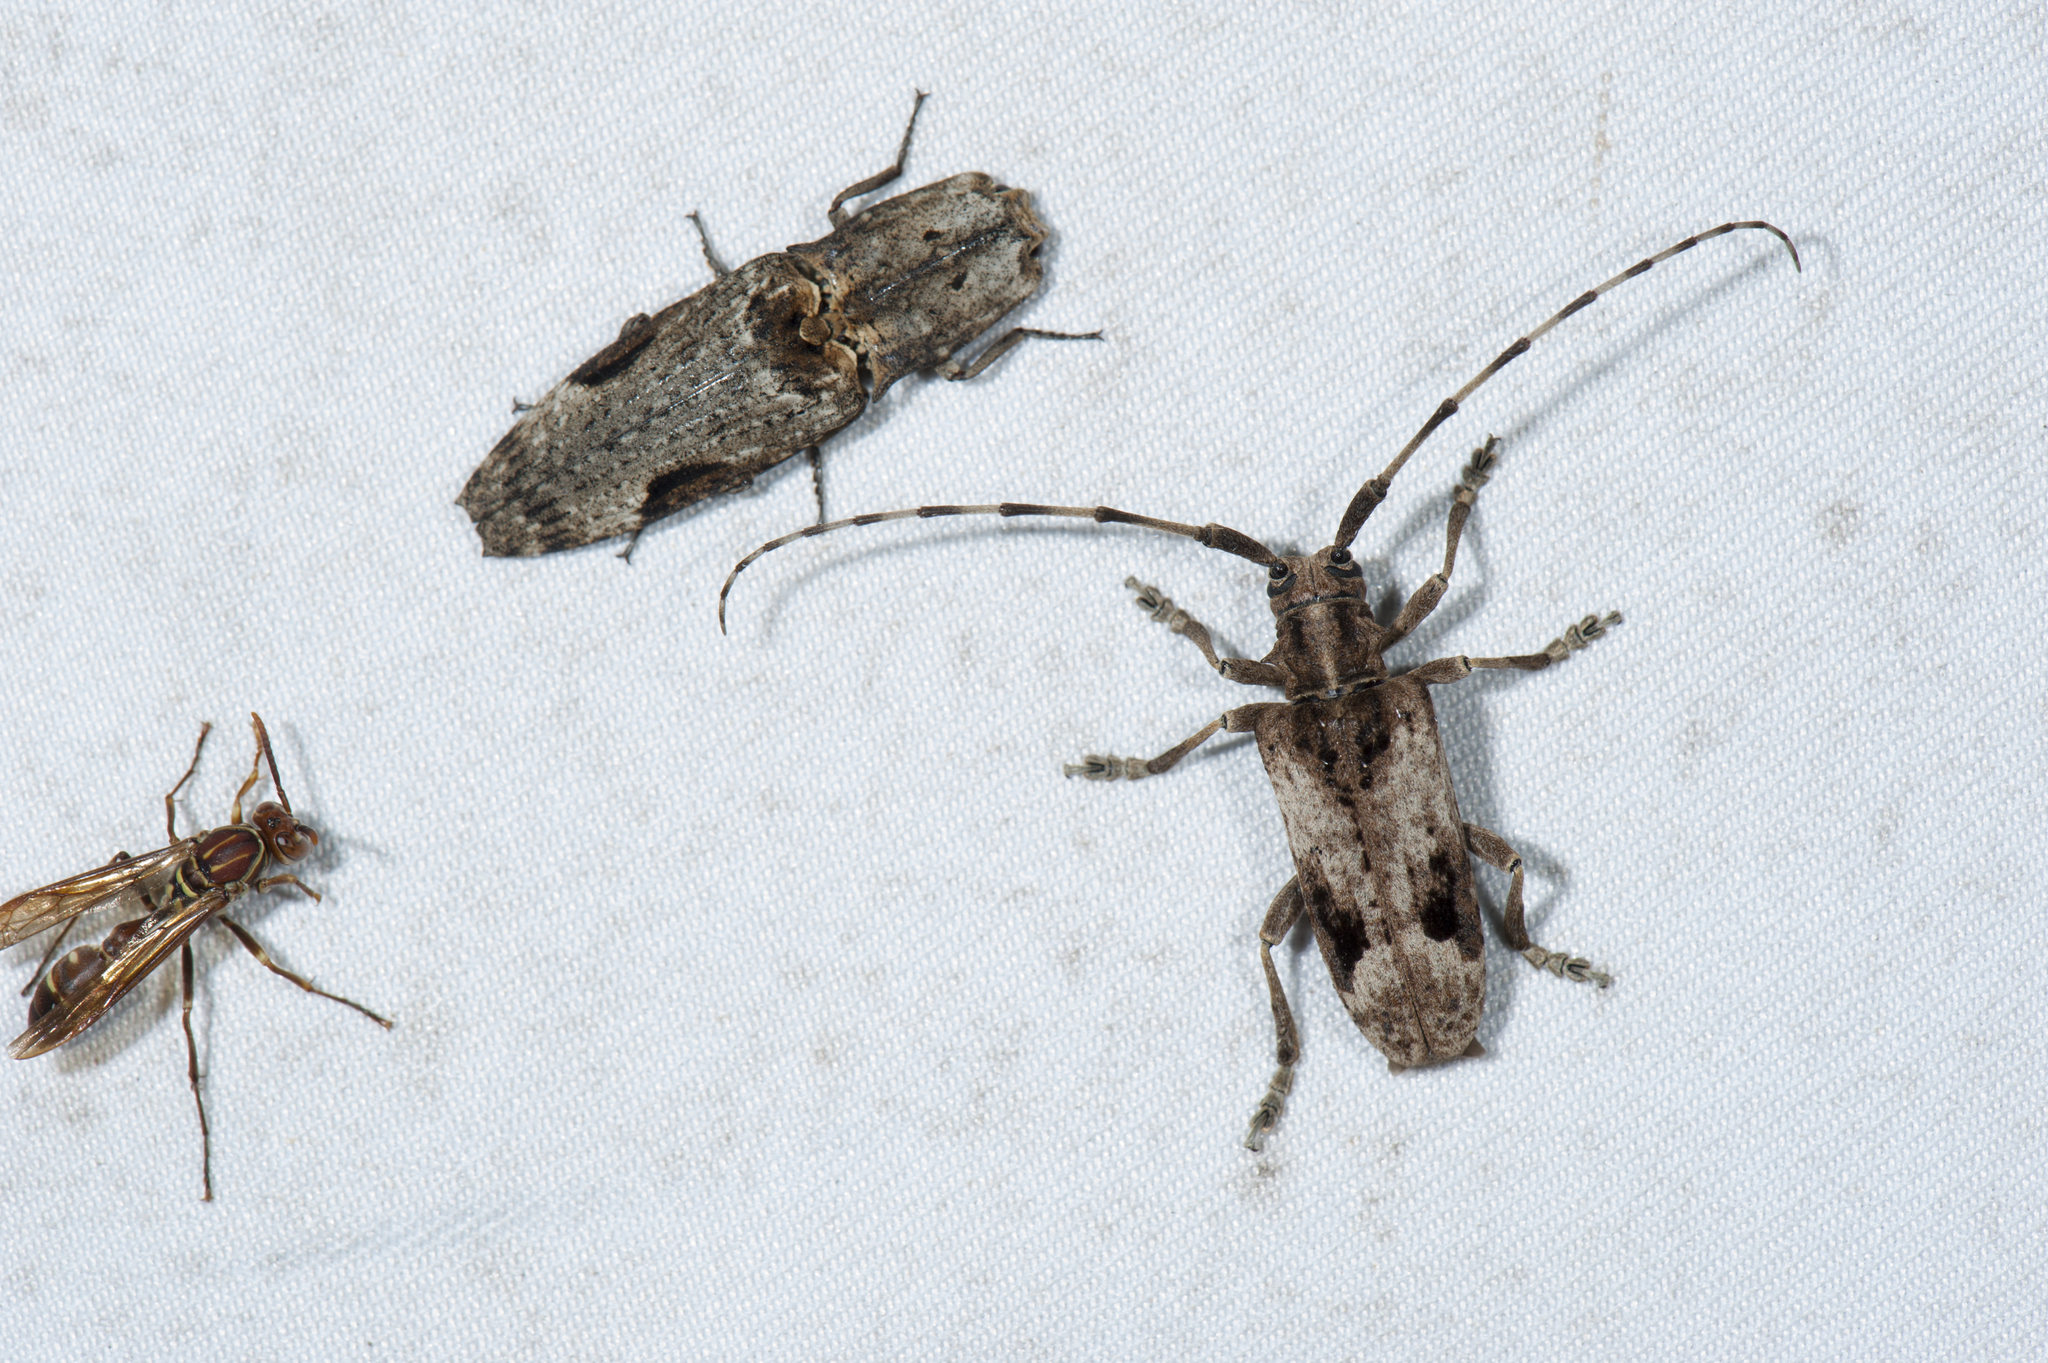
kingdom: Animalia
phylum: Arthropoda
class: Insecta
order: Coleoptera
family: Cerambycidae
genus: Blepephaeus
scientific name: Blepephaeus succinctor
